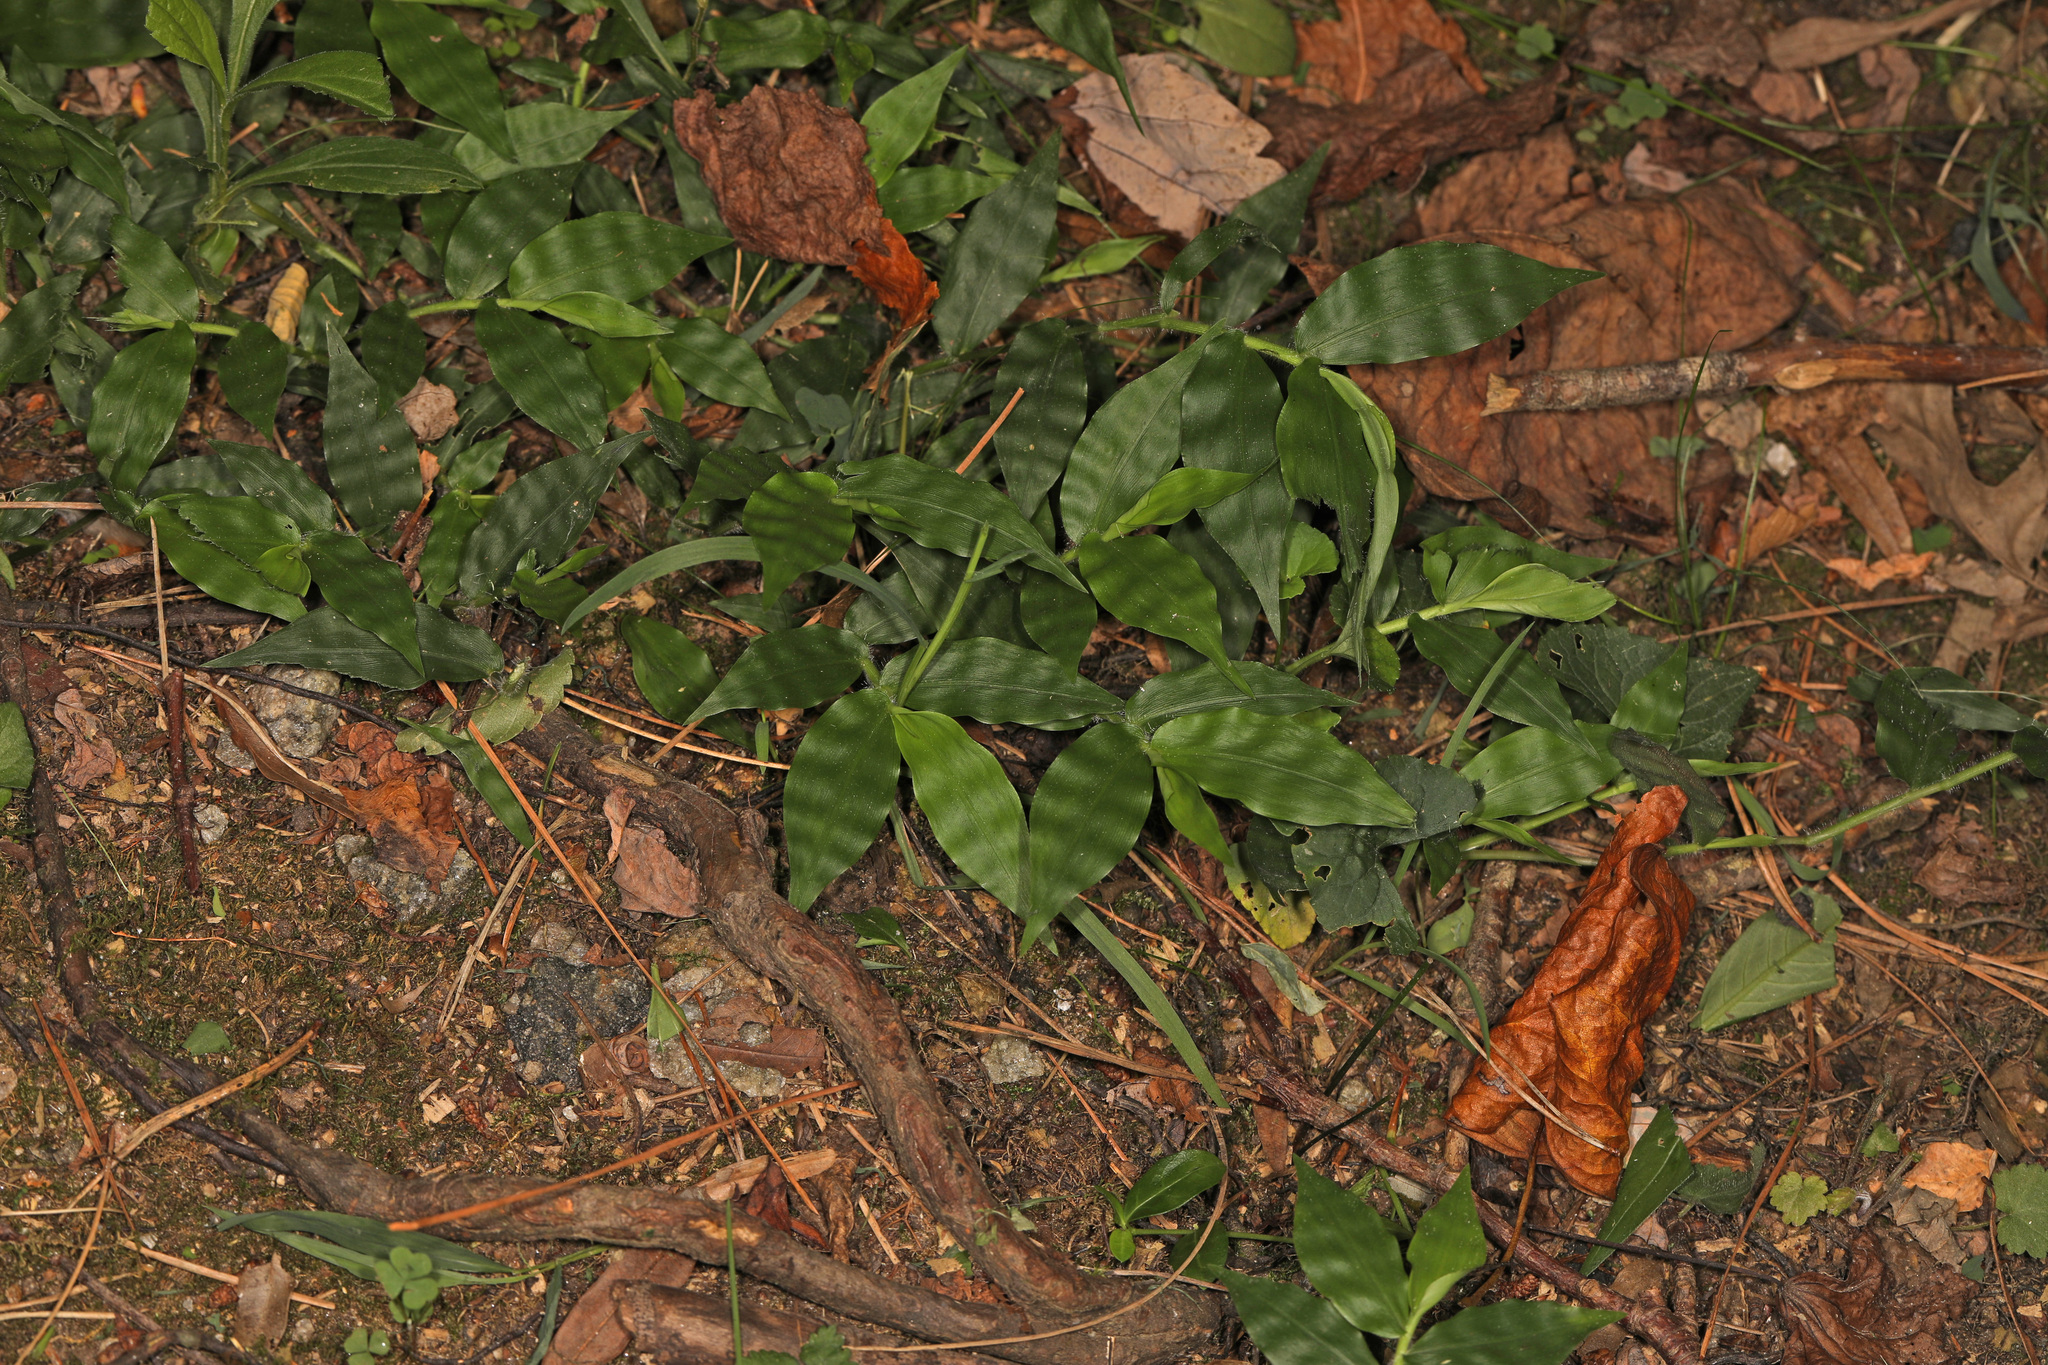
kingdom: Plantae
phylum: Tracheophyta
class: Liliopsida
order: Poales
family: Poaceae
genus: Oplismenus
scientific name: Oplismenus undulatifolius
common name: Wavyleaf basketgrass
